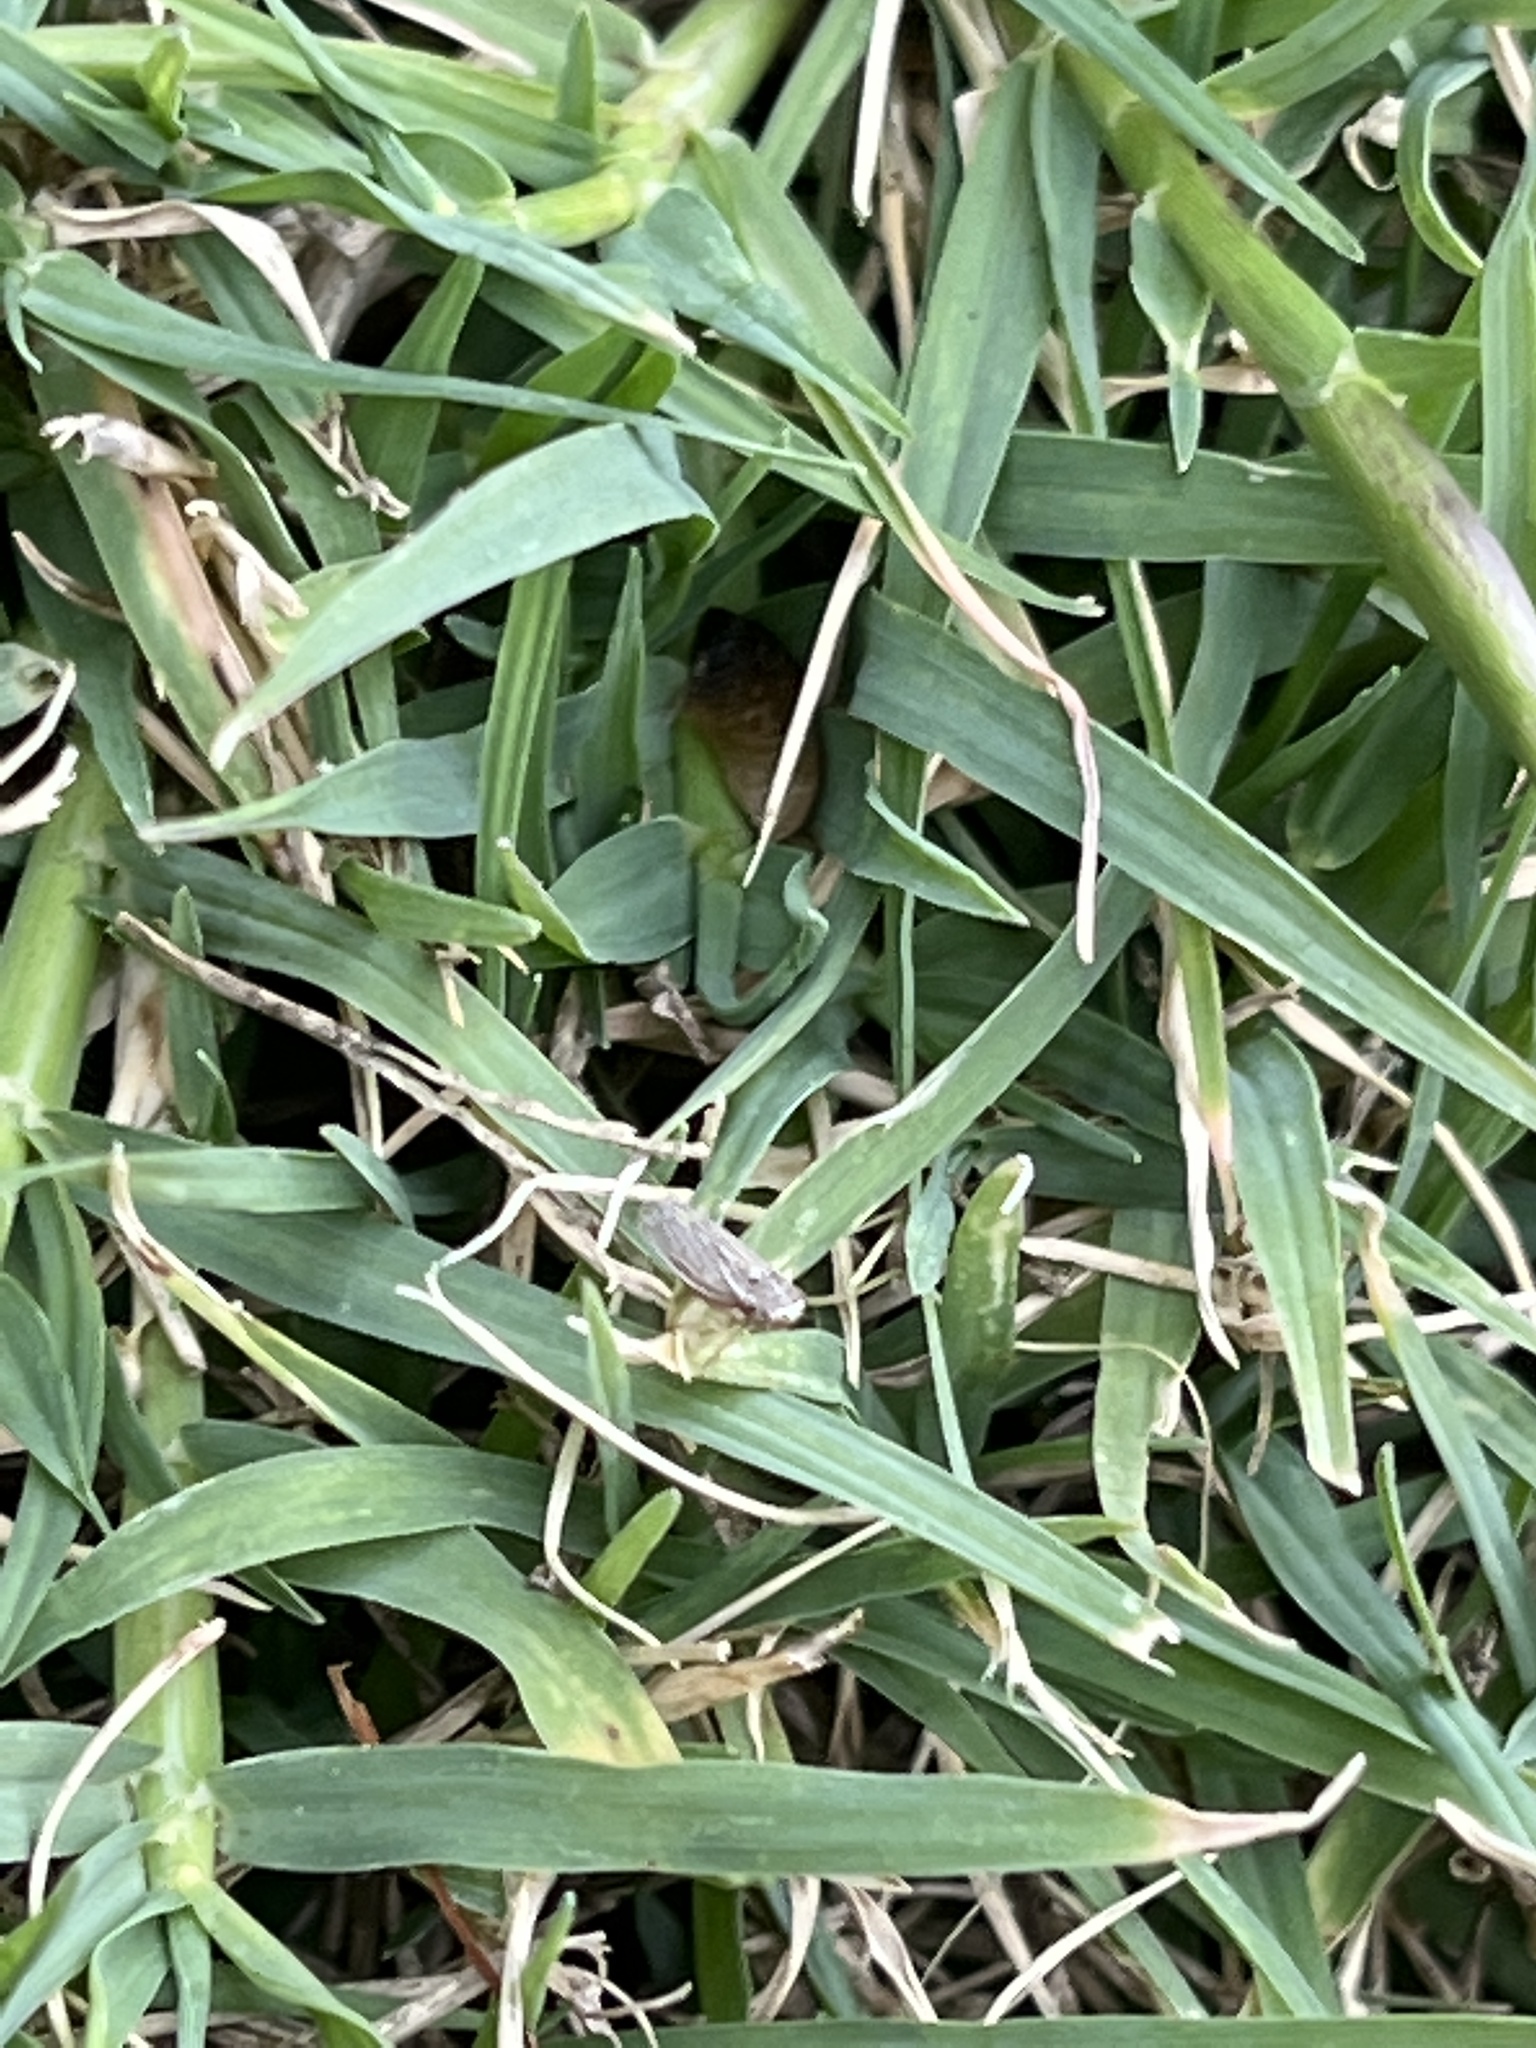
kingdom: Animalia
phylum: Arthropoda
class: Insecta
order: Hemiptera
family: Cicadellidae
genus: Exitianus
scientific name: Exitianus exitiosus
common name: Gray lawn leafhopper
